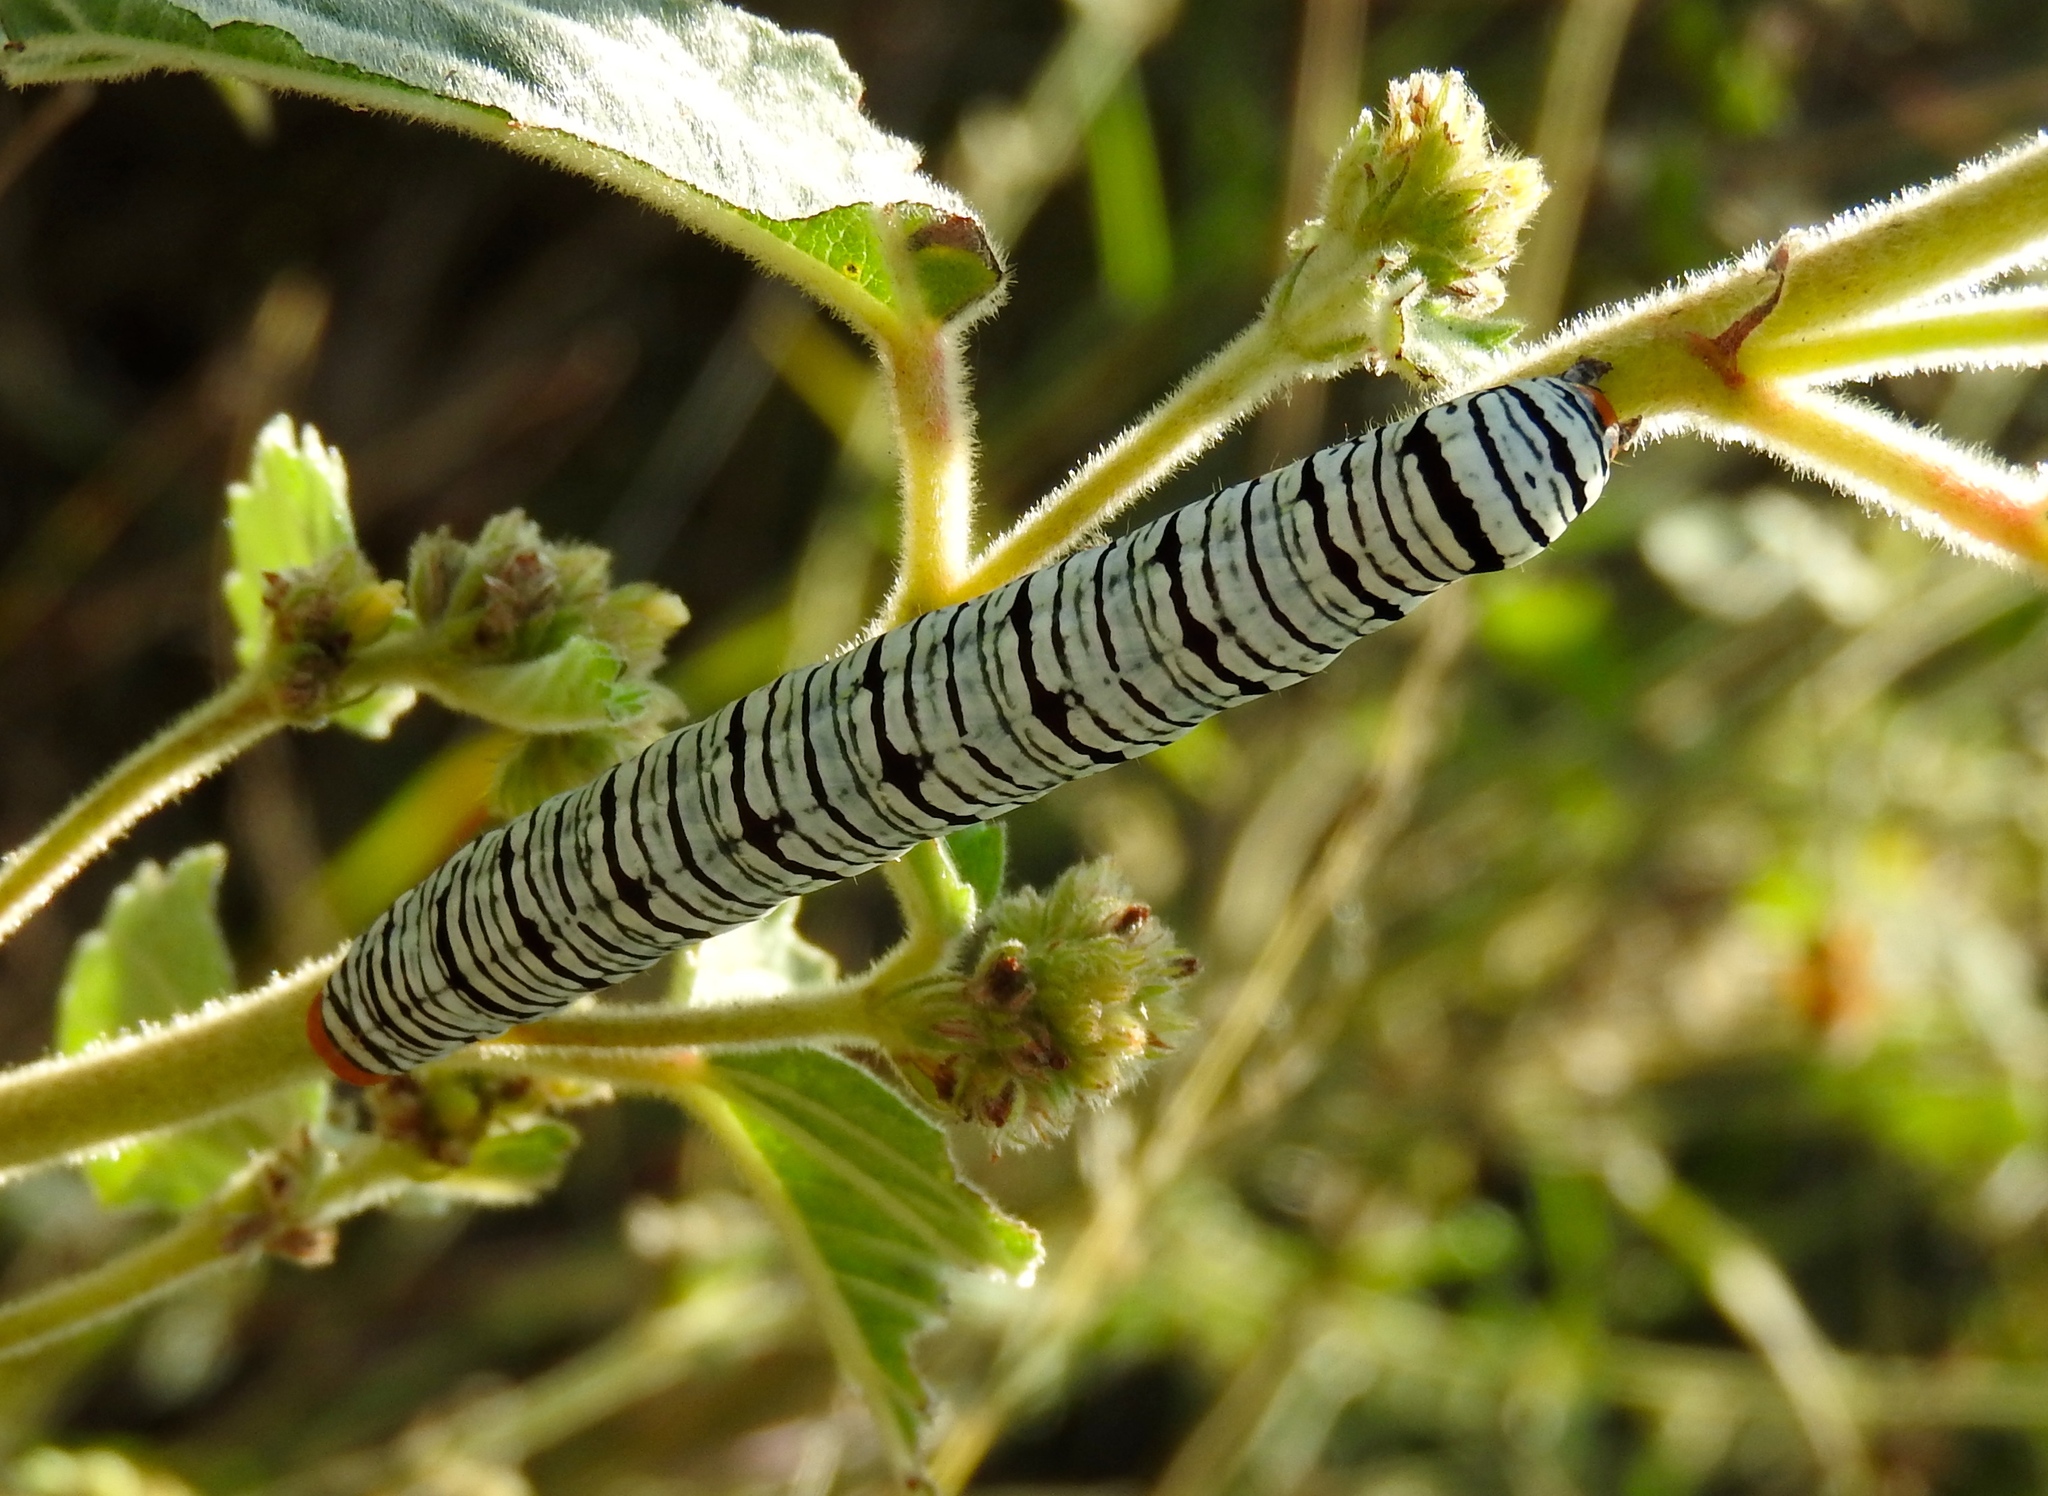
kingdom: Animalia
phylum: Arthropoda
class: Insecta
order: Lepidoptera
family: Erebidae
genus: Diphthera
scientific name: Diphthera festiva
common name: Hieroglyphic moth
